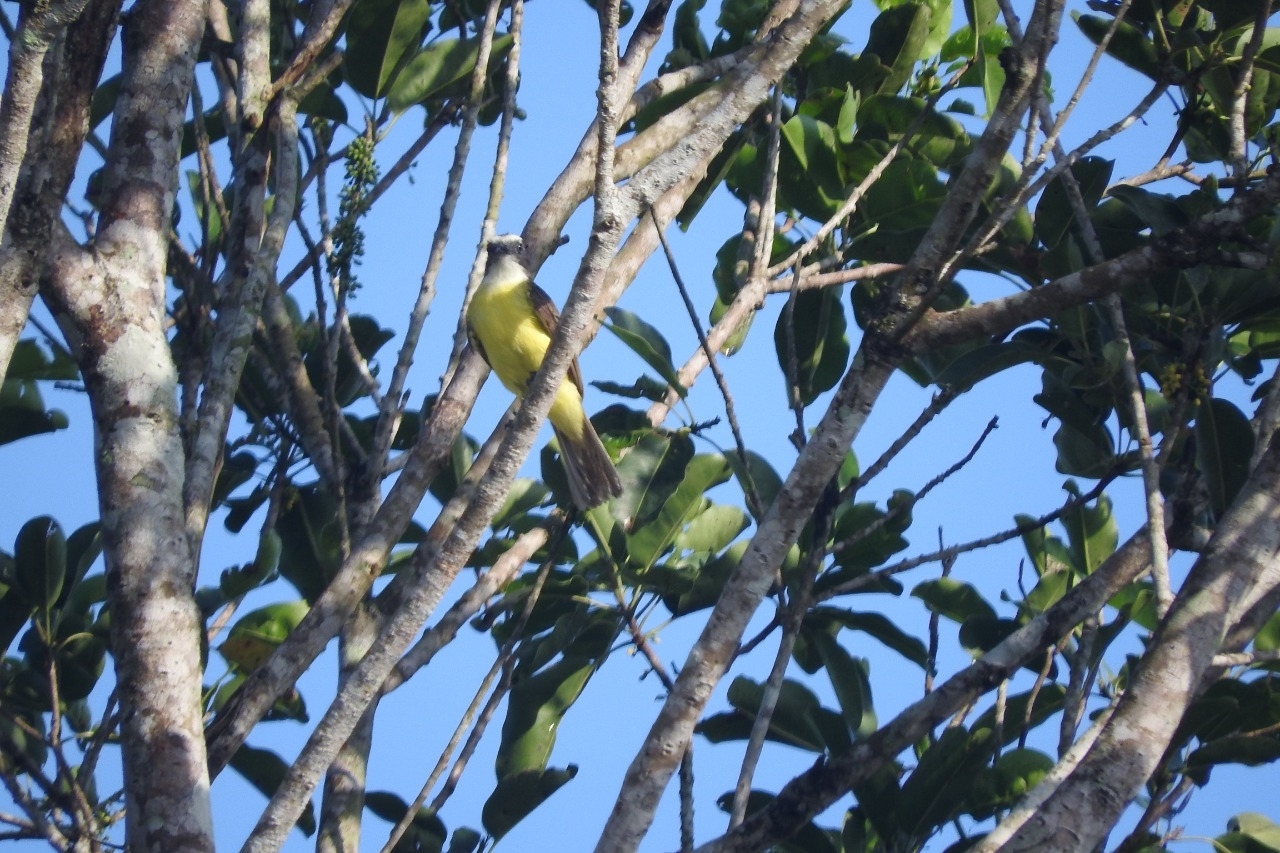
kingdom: Animalia
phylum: Chordata
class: Aves
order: Passeriformes
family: Tyrannidae
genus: Myiozetetes
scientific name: Myiozetetes similis
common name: Social flycatcher
